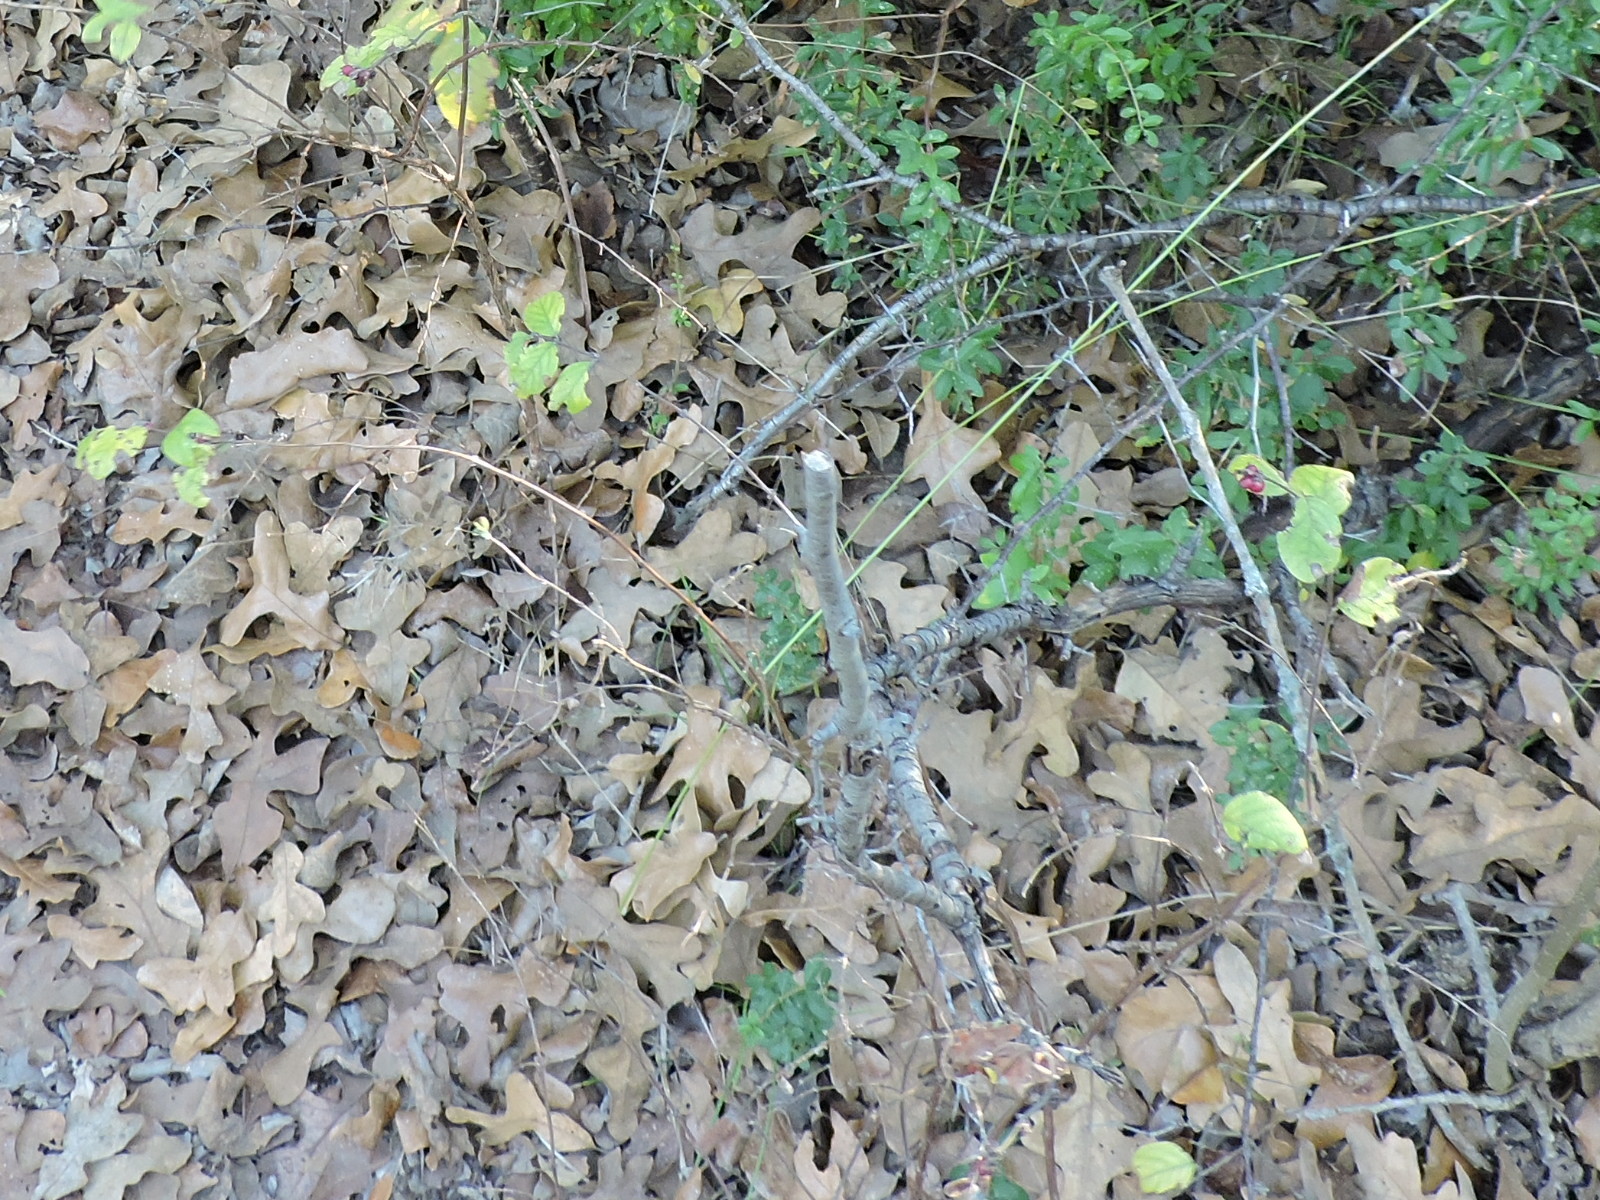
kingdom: Plantae
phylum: Tracheophyta
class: Magnoliopsida
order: Dipsacales
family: Caprifoliaceae
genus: Symphoricarpos
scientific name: Symphoricarpos orbiculatus
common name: Coralberry
